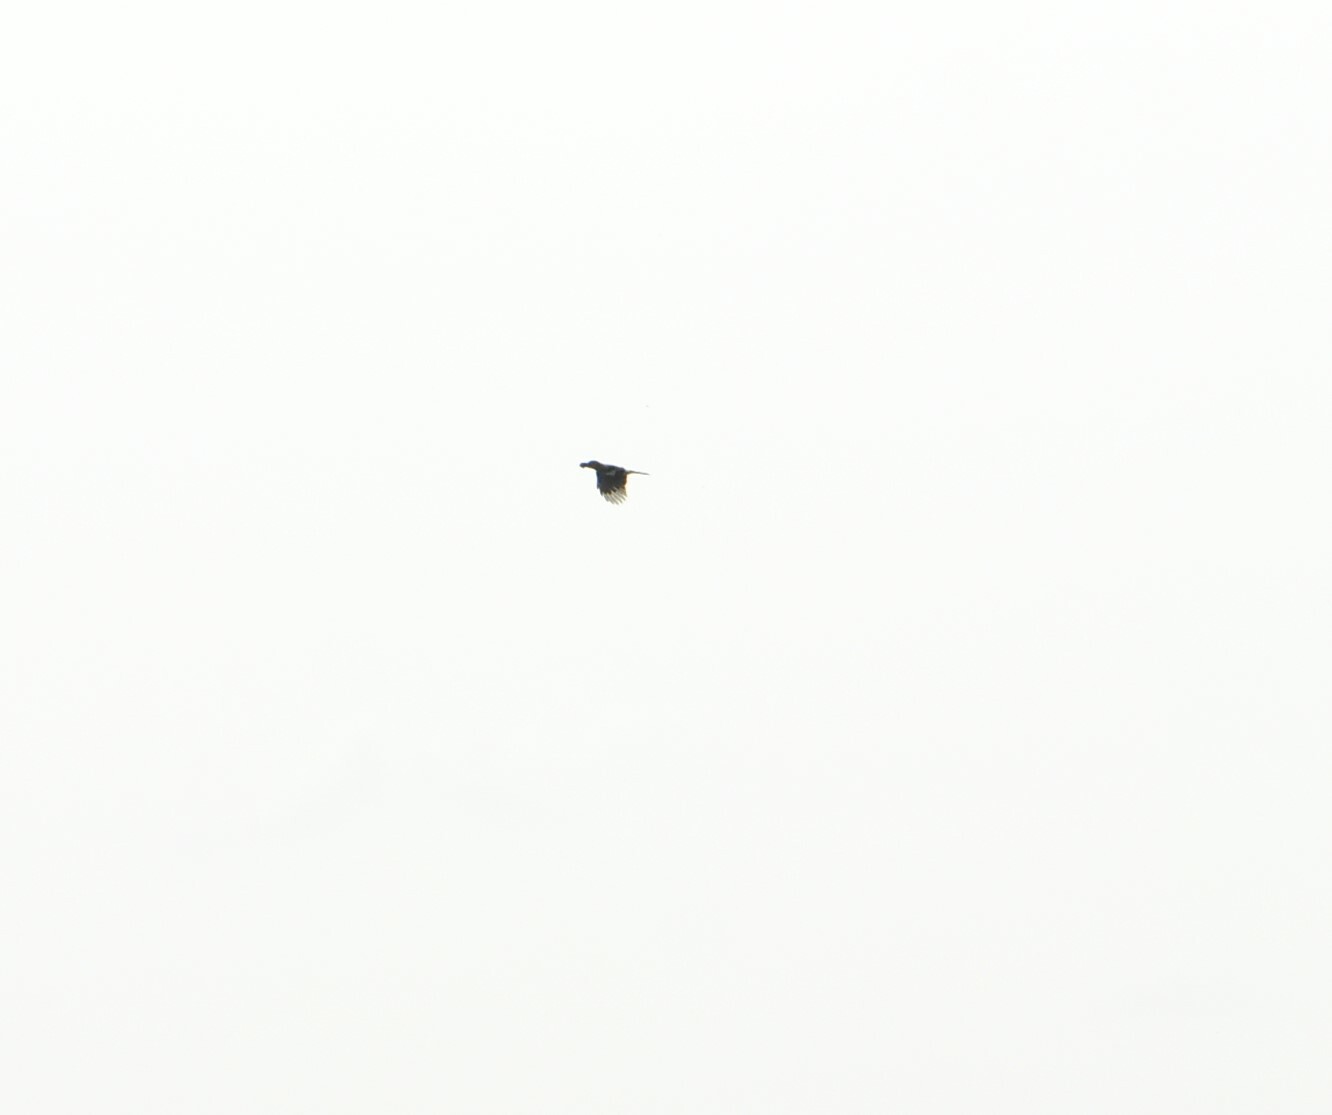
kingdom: Animalia
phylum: Chordata
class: Aves
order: Passeriformes
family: Corvidae
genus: Garrulus
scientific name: Garrulus glandarius
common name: Eurasian jay
